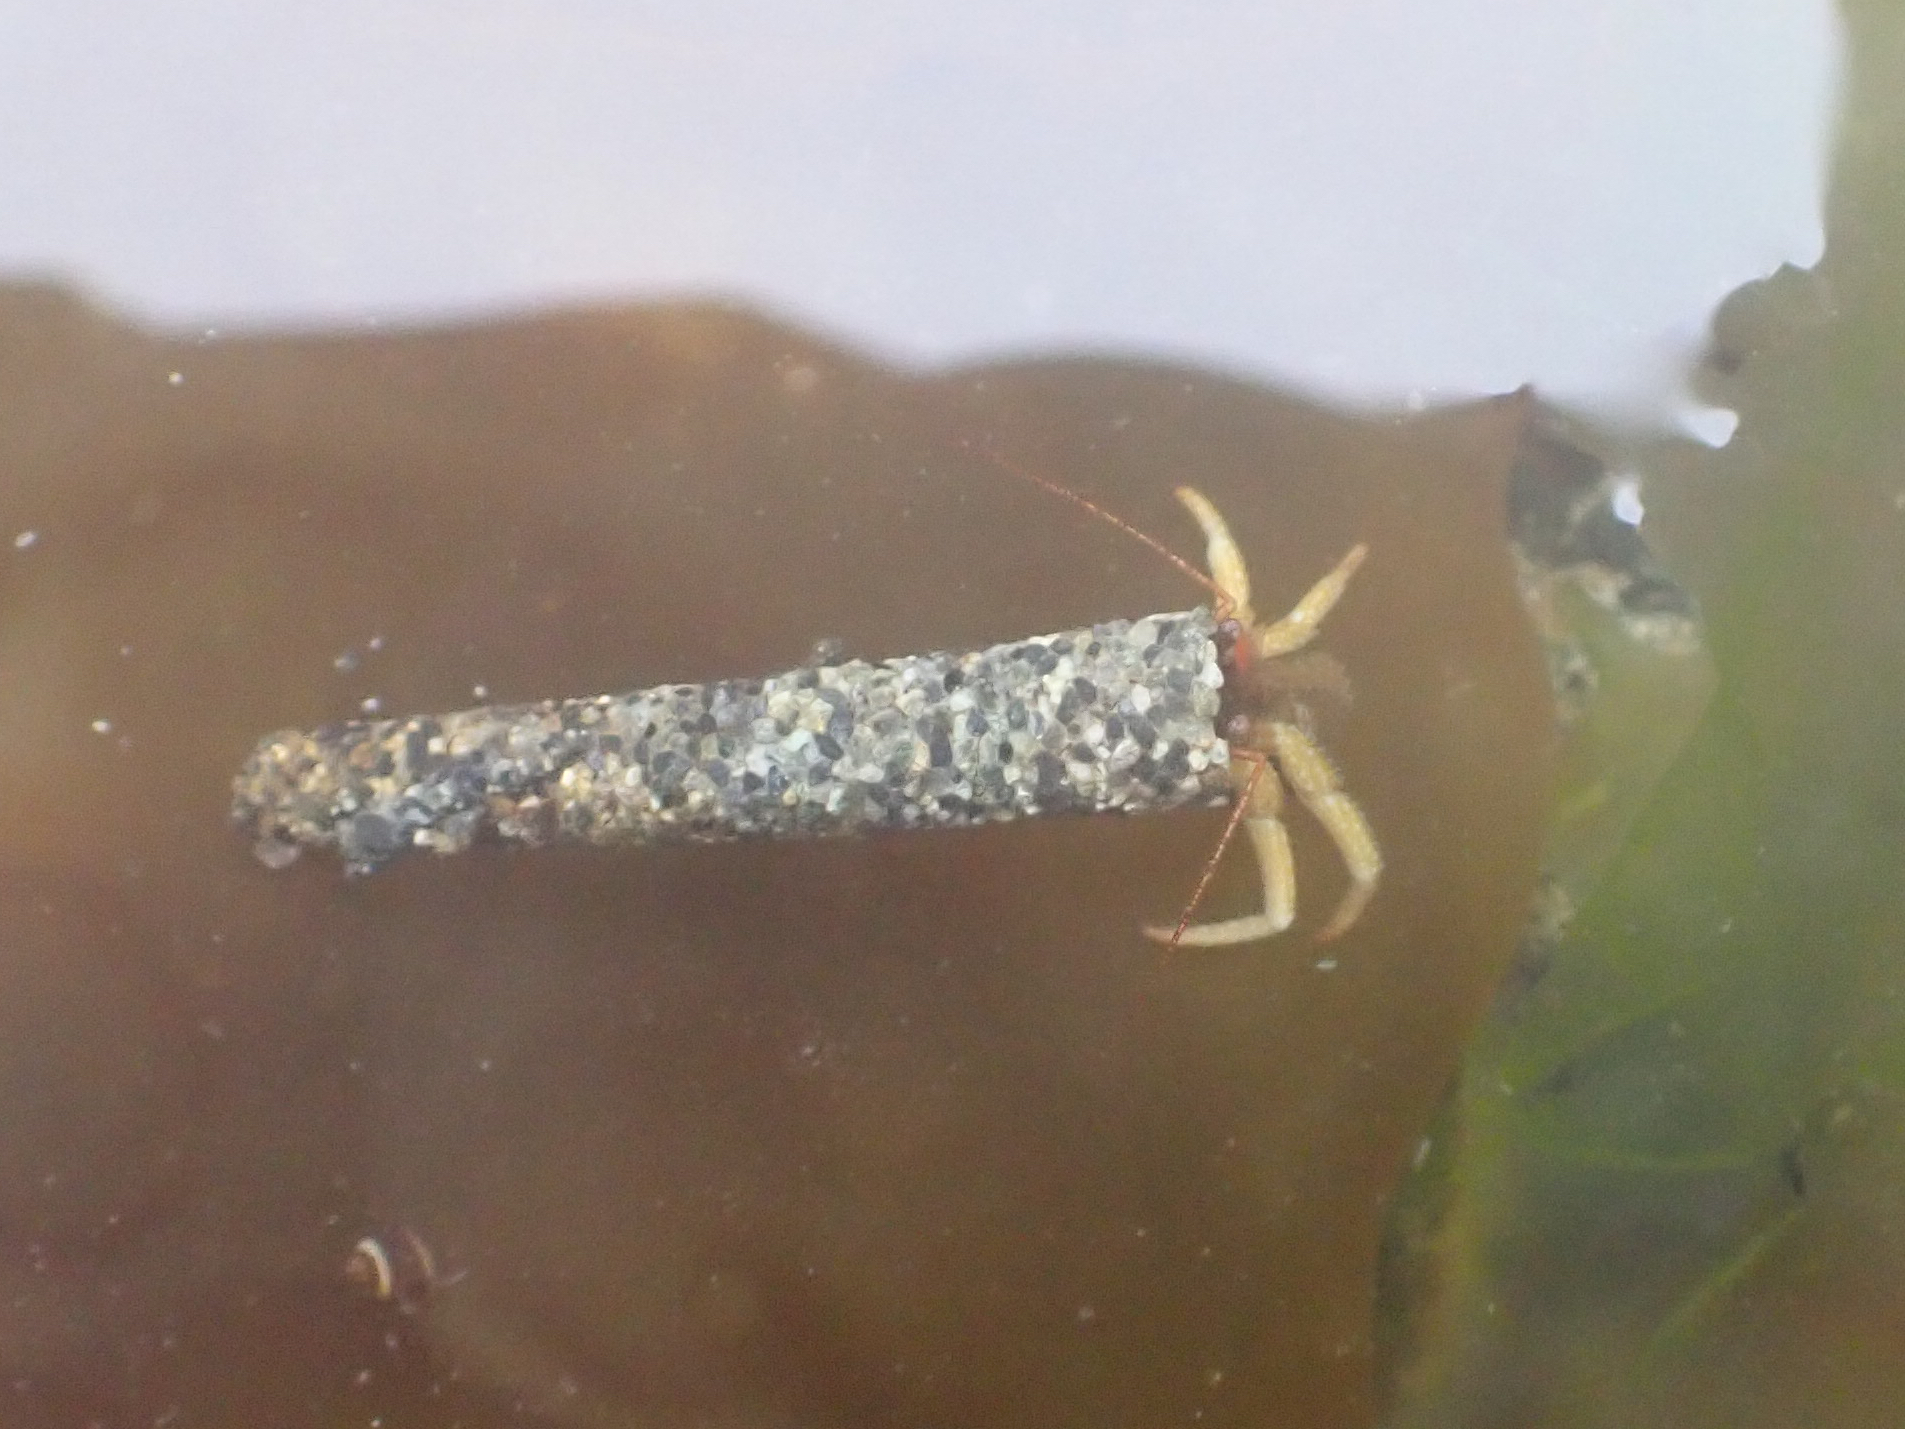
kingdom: Animalia
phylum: Arthropoda
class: Malacostraca
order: Decapoda
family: Paguridae
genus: Pagurus
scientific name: Pagurus granosimanus
